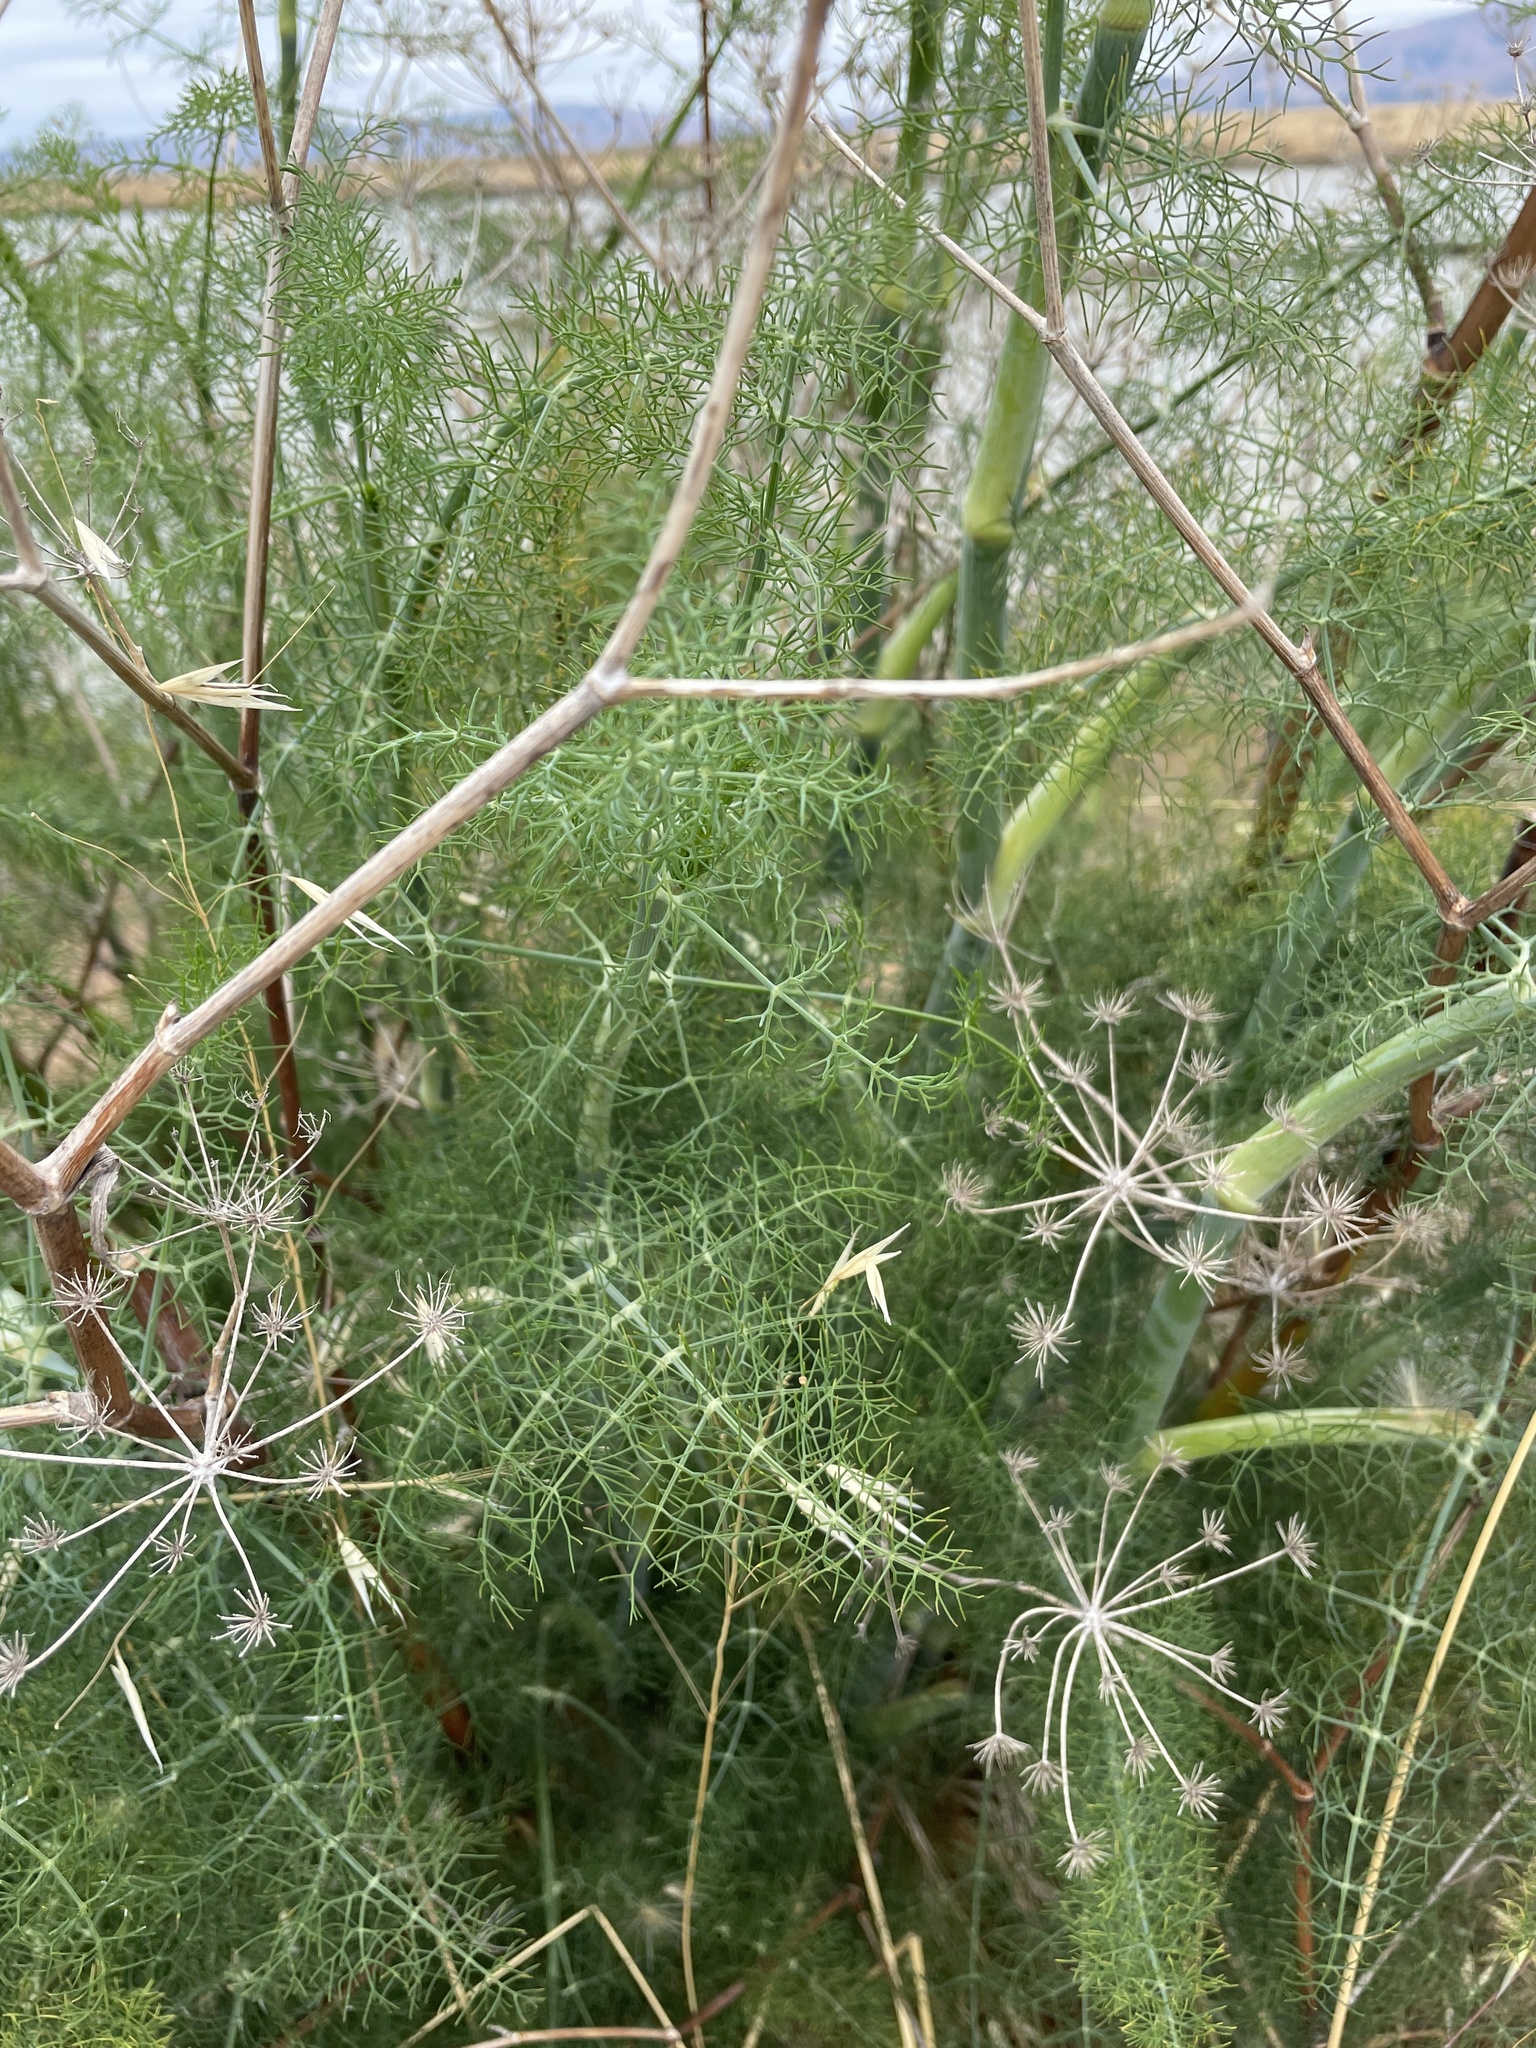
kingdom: Plantae
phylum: Tracheophyta
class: Magnoliopsida
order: Apiales
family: Apiaceae
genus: Foeniculum
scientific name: Foeniculum vulgare
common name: Fennel
